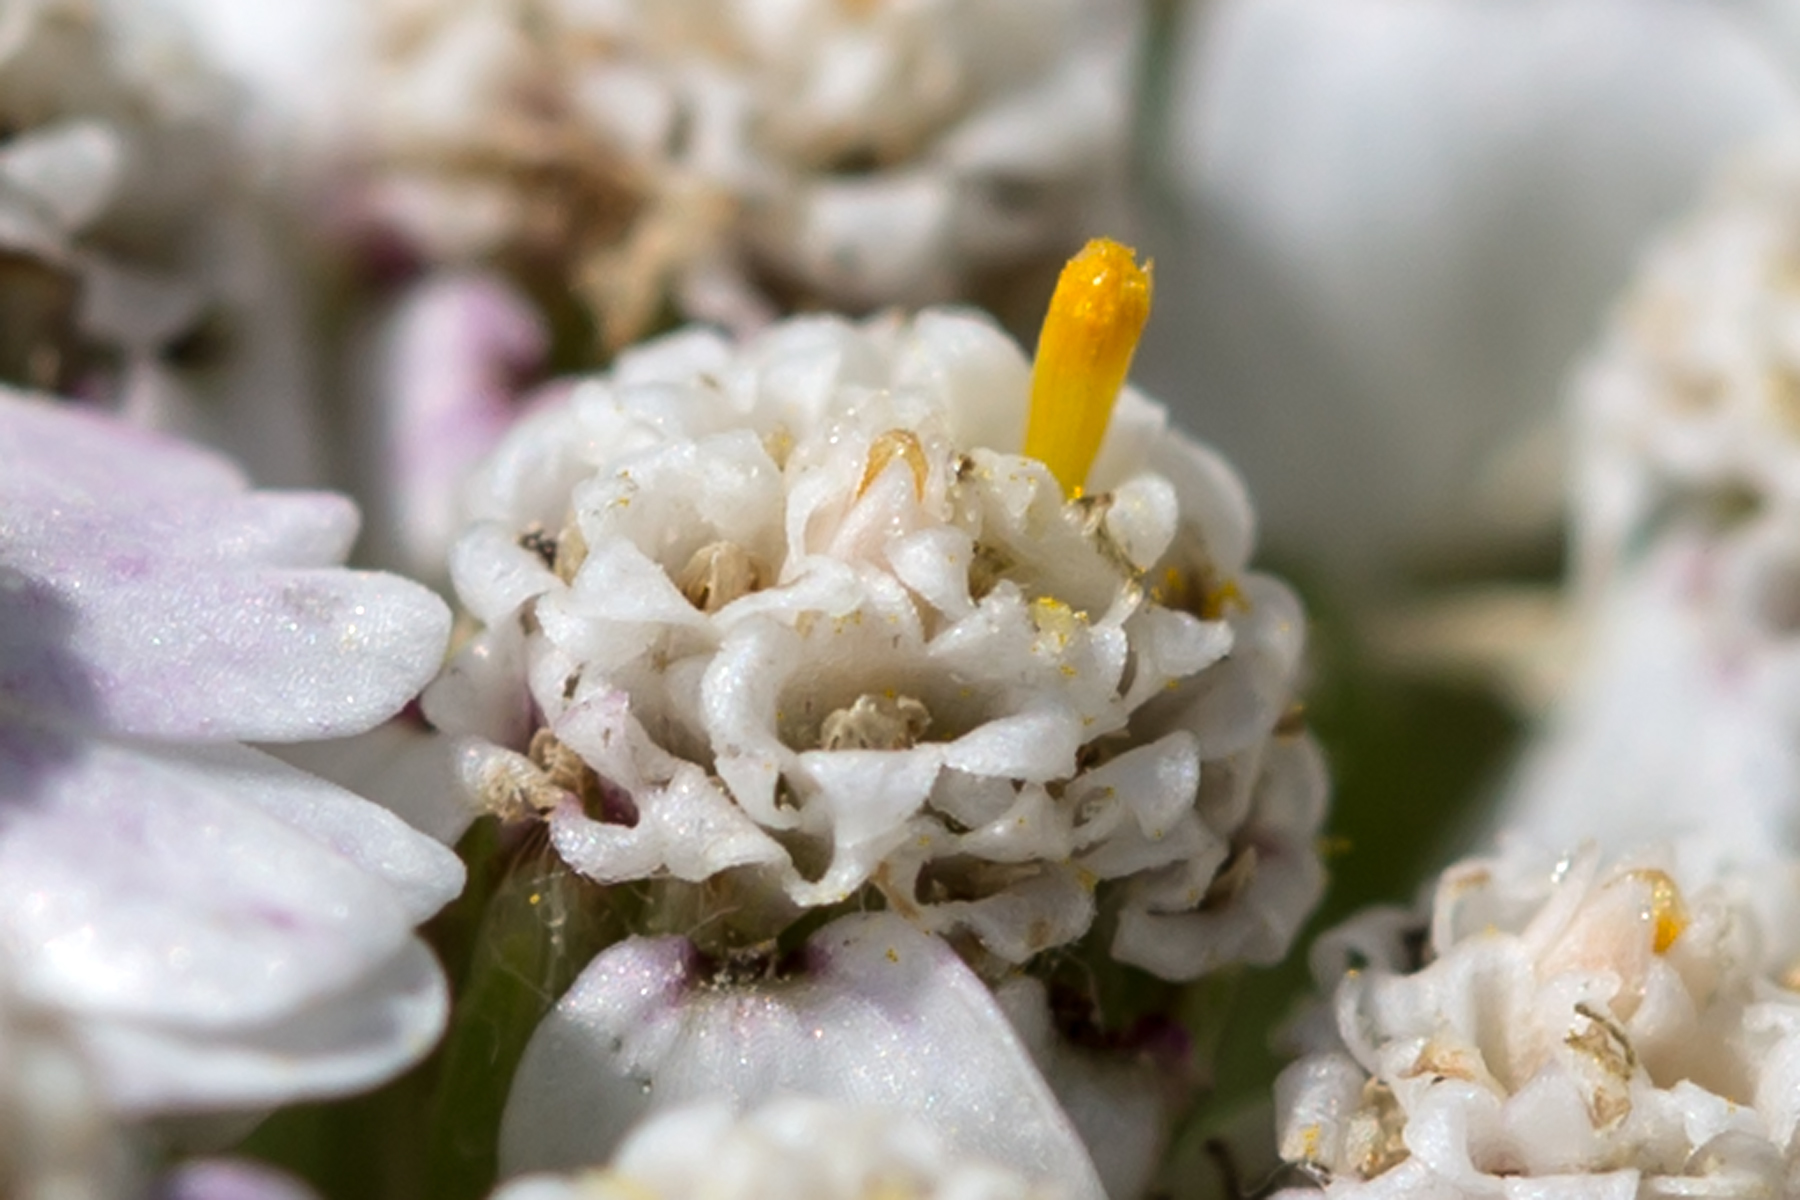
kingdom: Plantae
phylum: Tracheophyta
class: Magnoliopsida
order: Asterales
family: Asteraceae
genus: Achillea
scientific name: Achillea millefolium
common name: Yarrow
